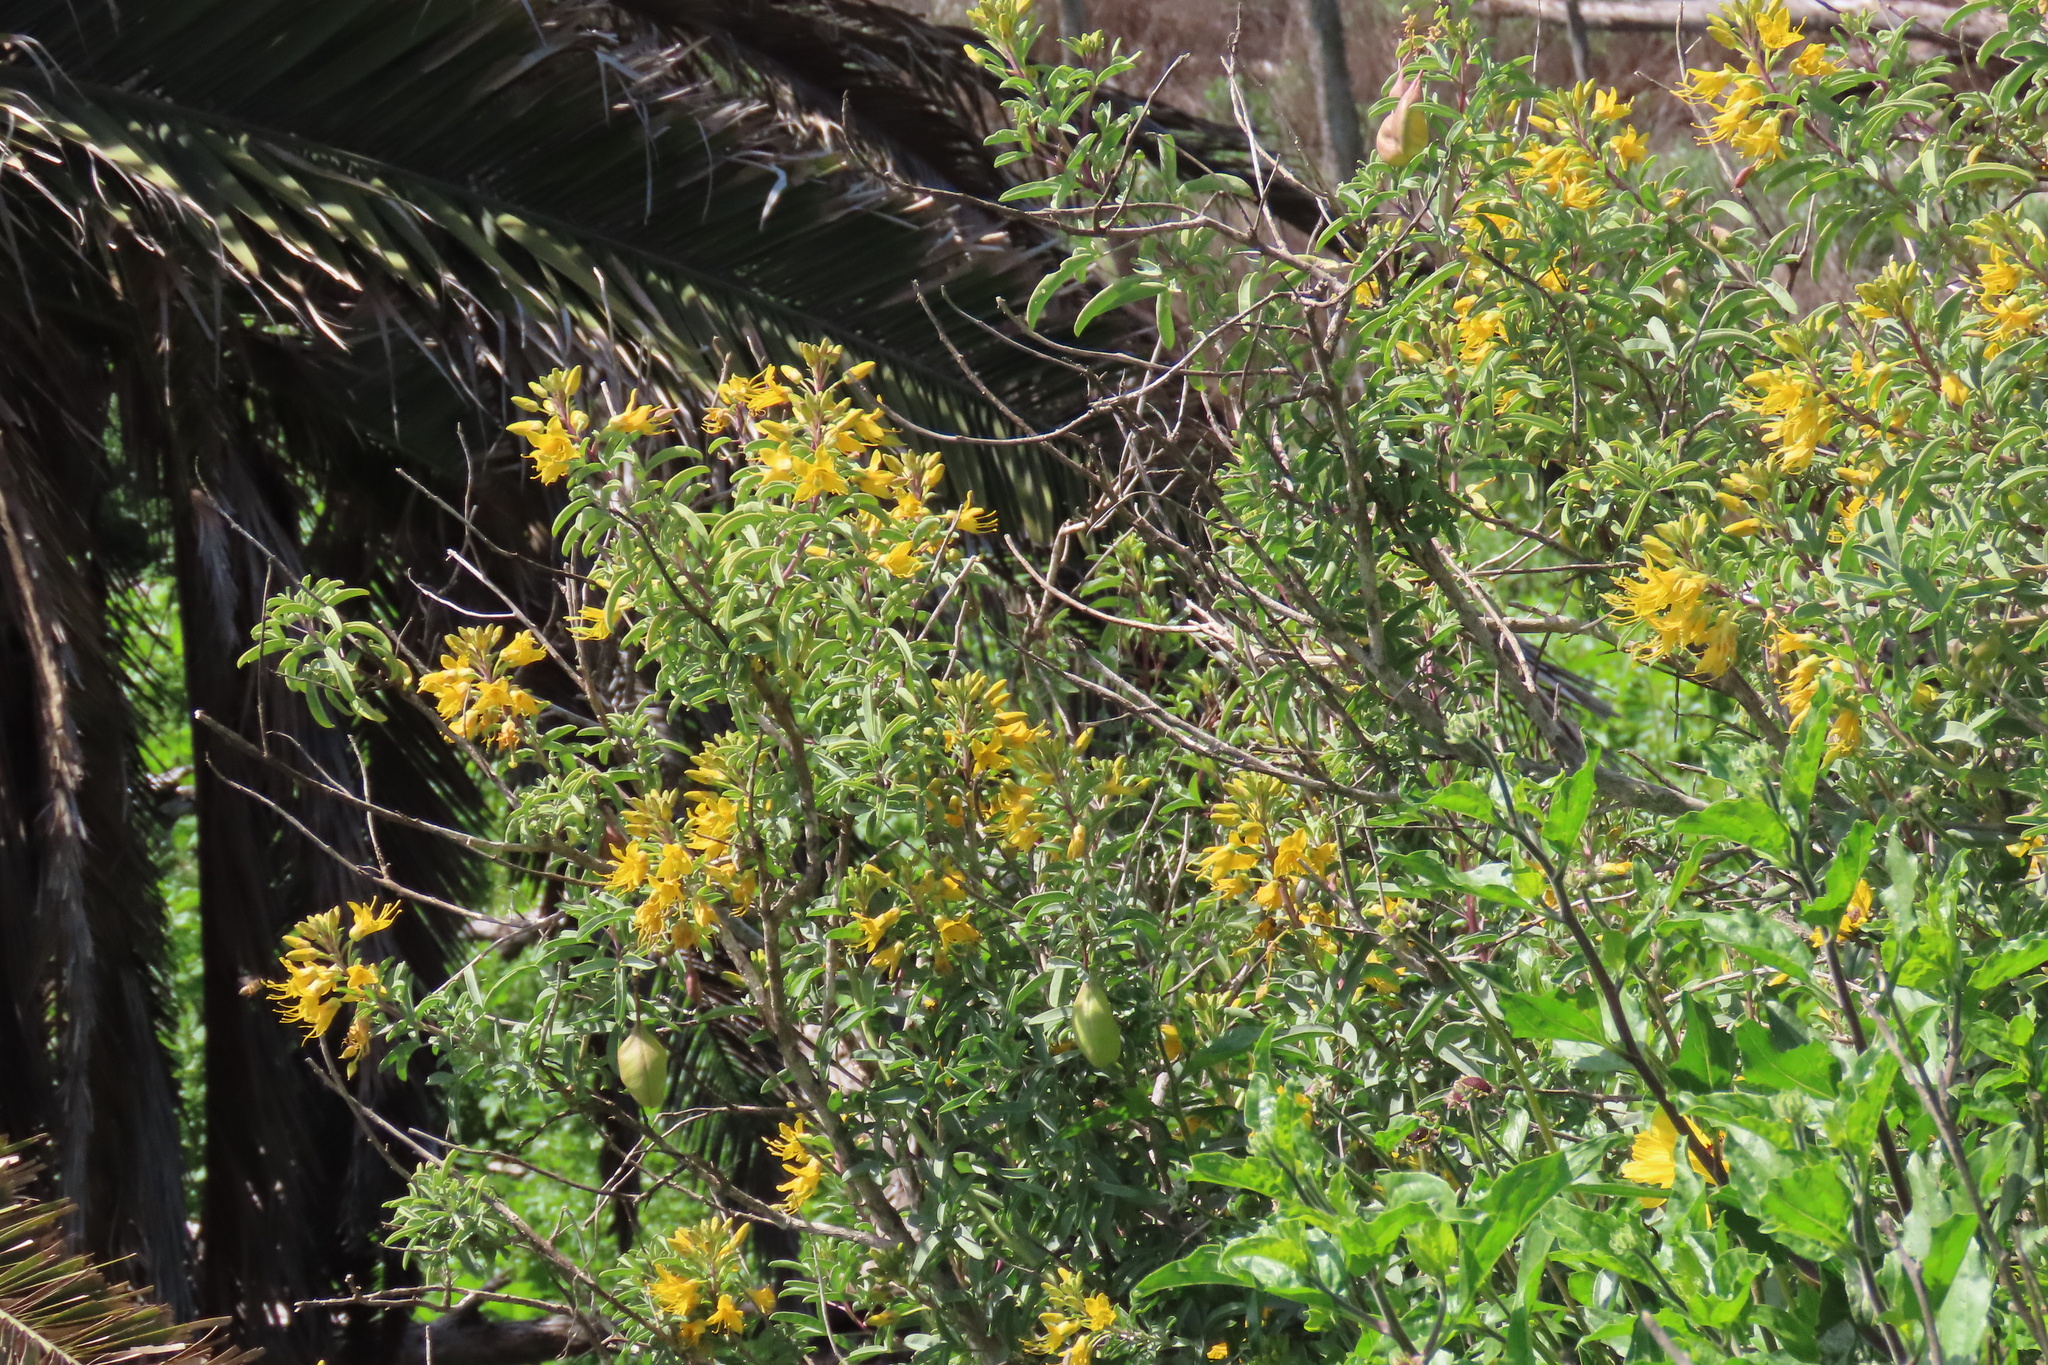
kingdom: Plantae
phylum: Tracheophyta
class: Magnoliopsida
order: Brassicales
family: Cleomaceae
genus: Cleomella
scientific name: Cleomella arborea
